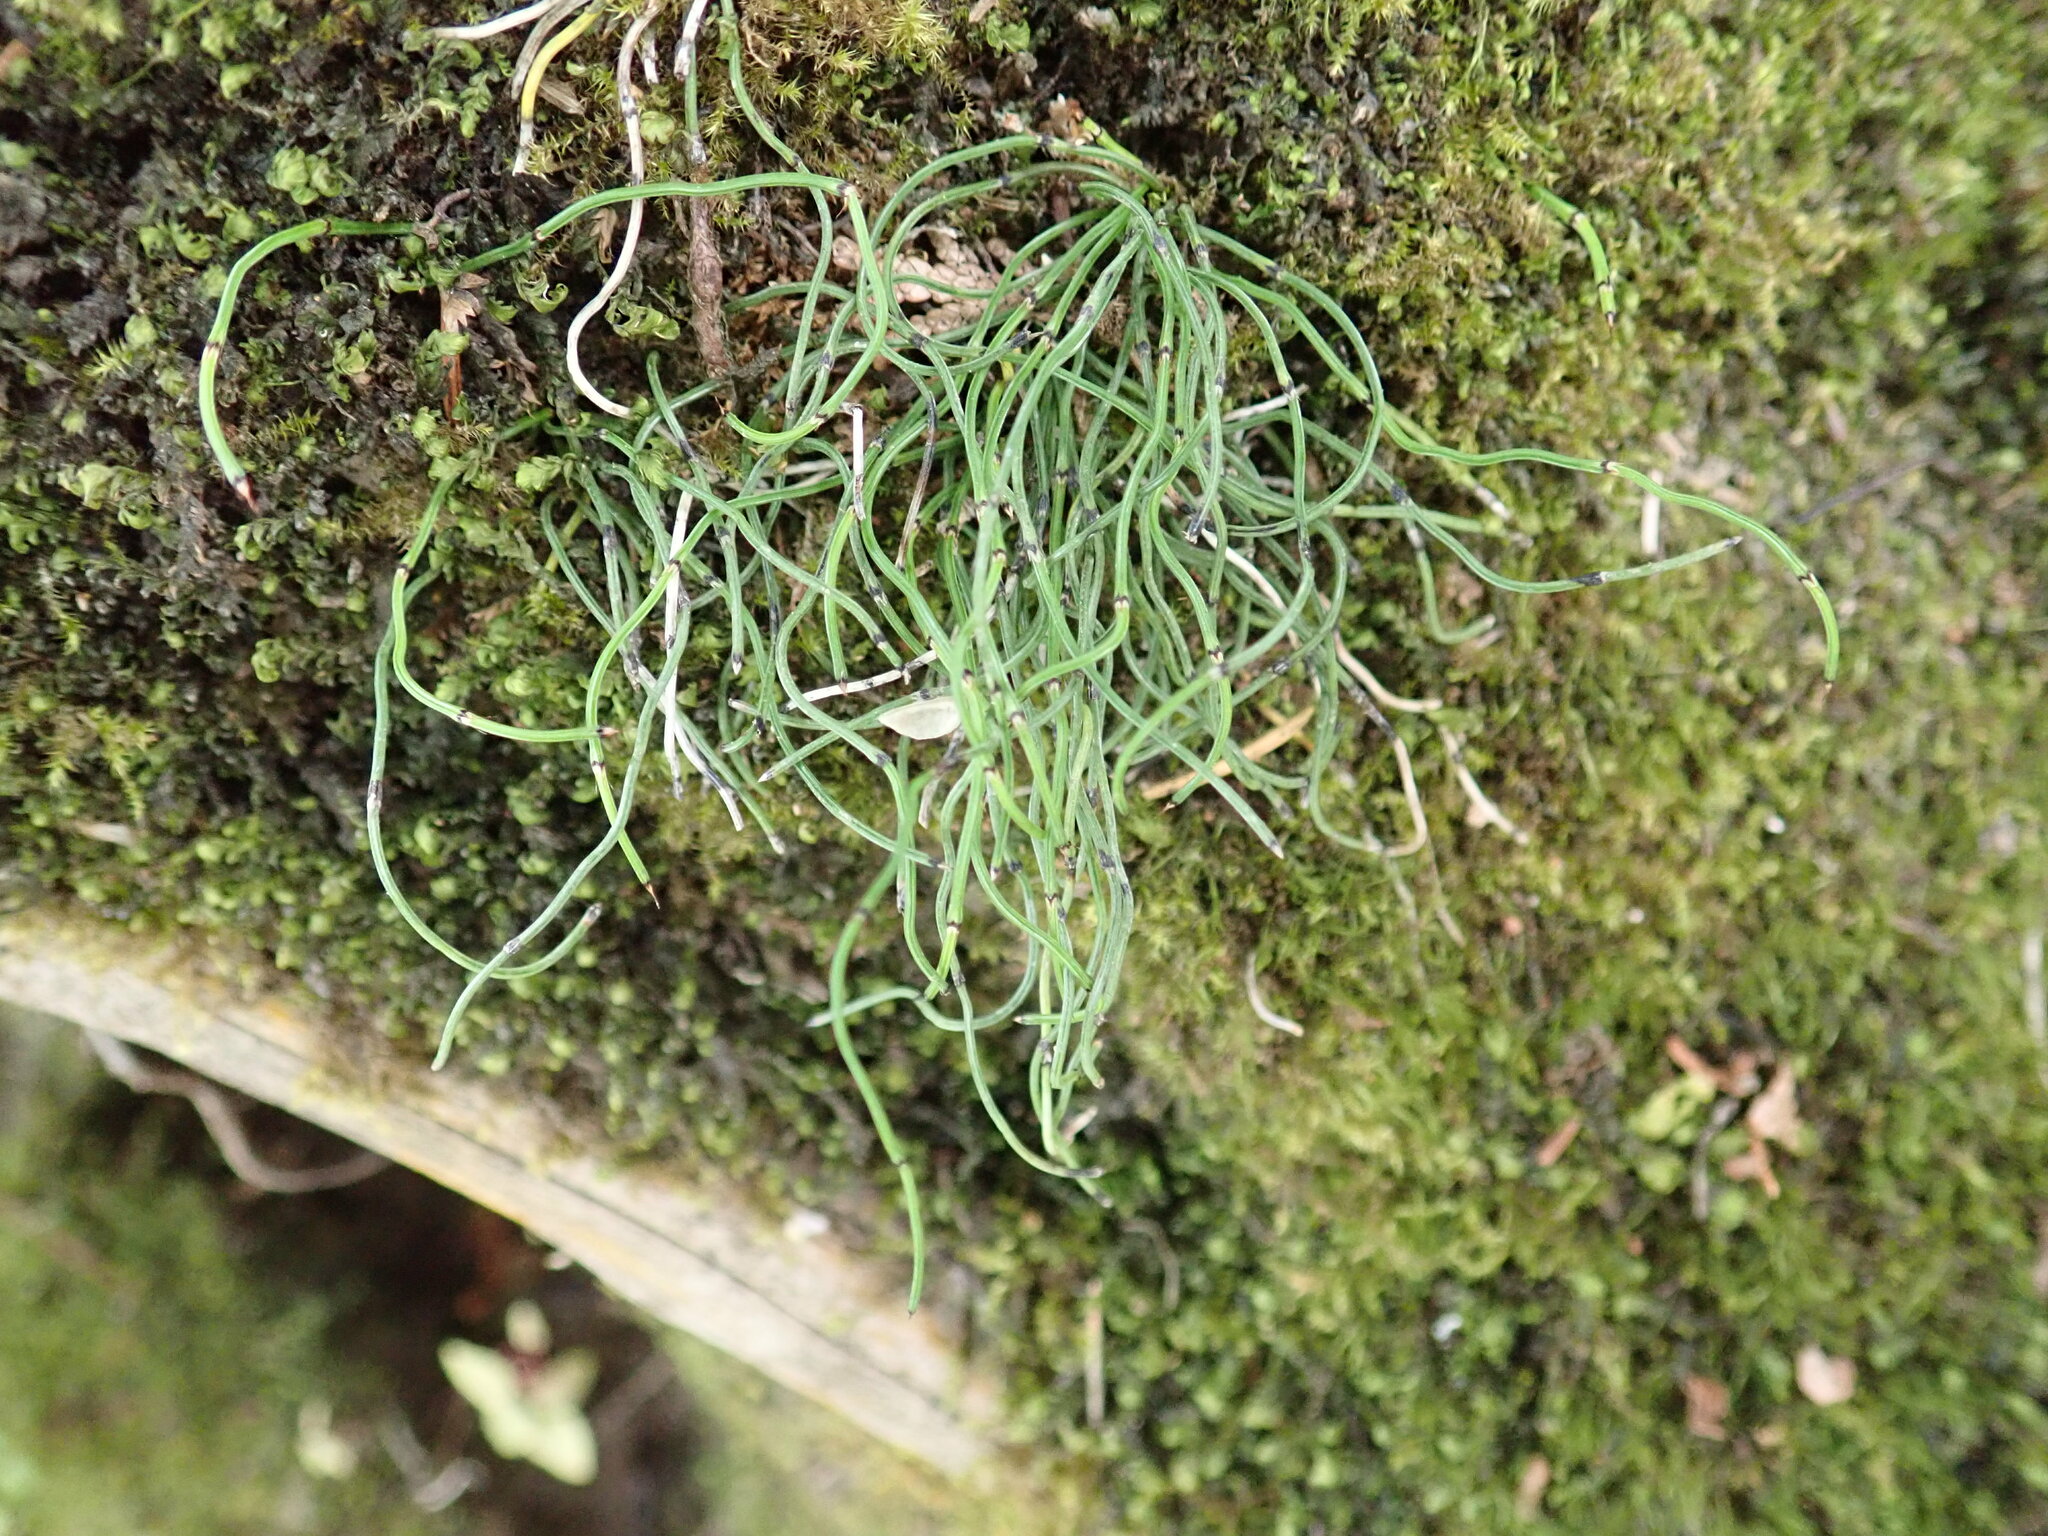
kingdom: Plantae
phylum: Tracheophyta
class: Polypodiopsida
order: Equisetales
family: Equisetaceae
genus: Equisetum
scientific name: Equisetum scirpoides
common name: Delicate horsetail
